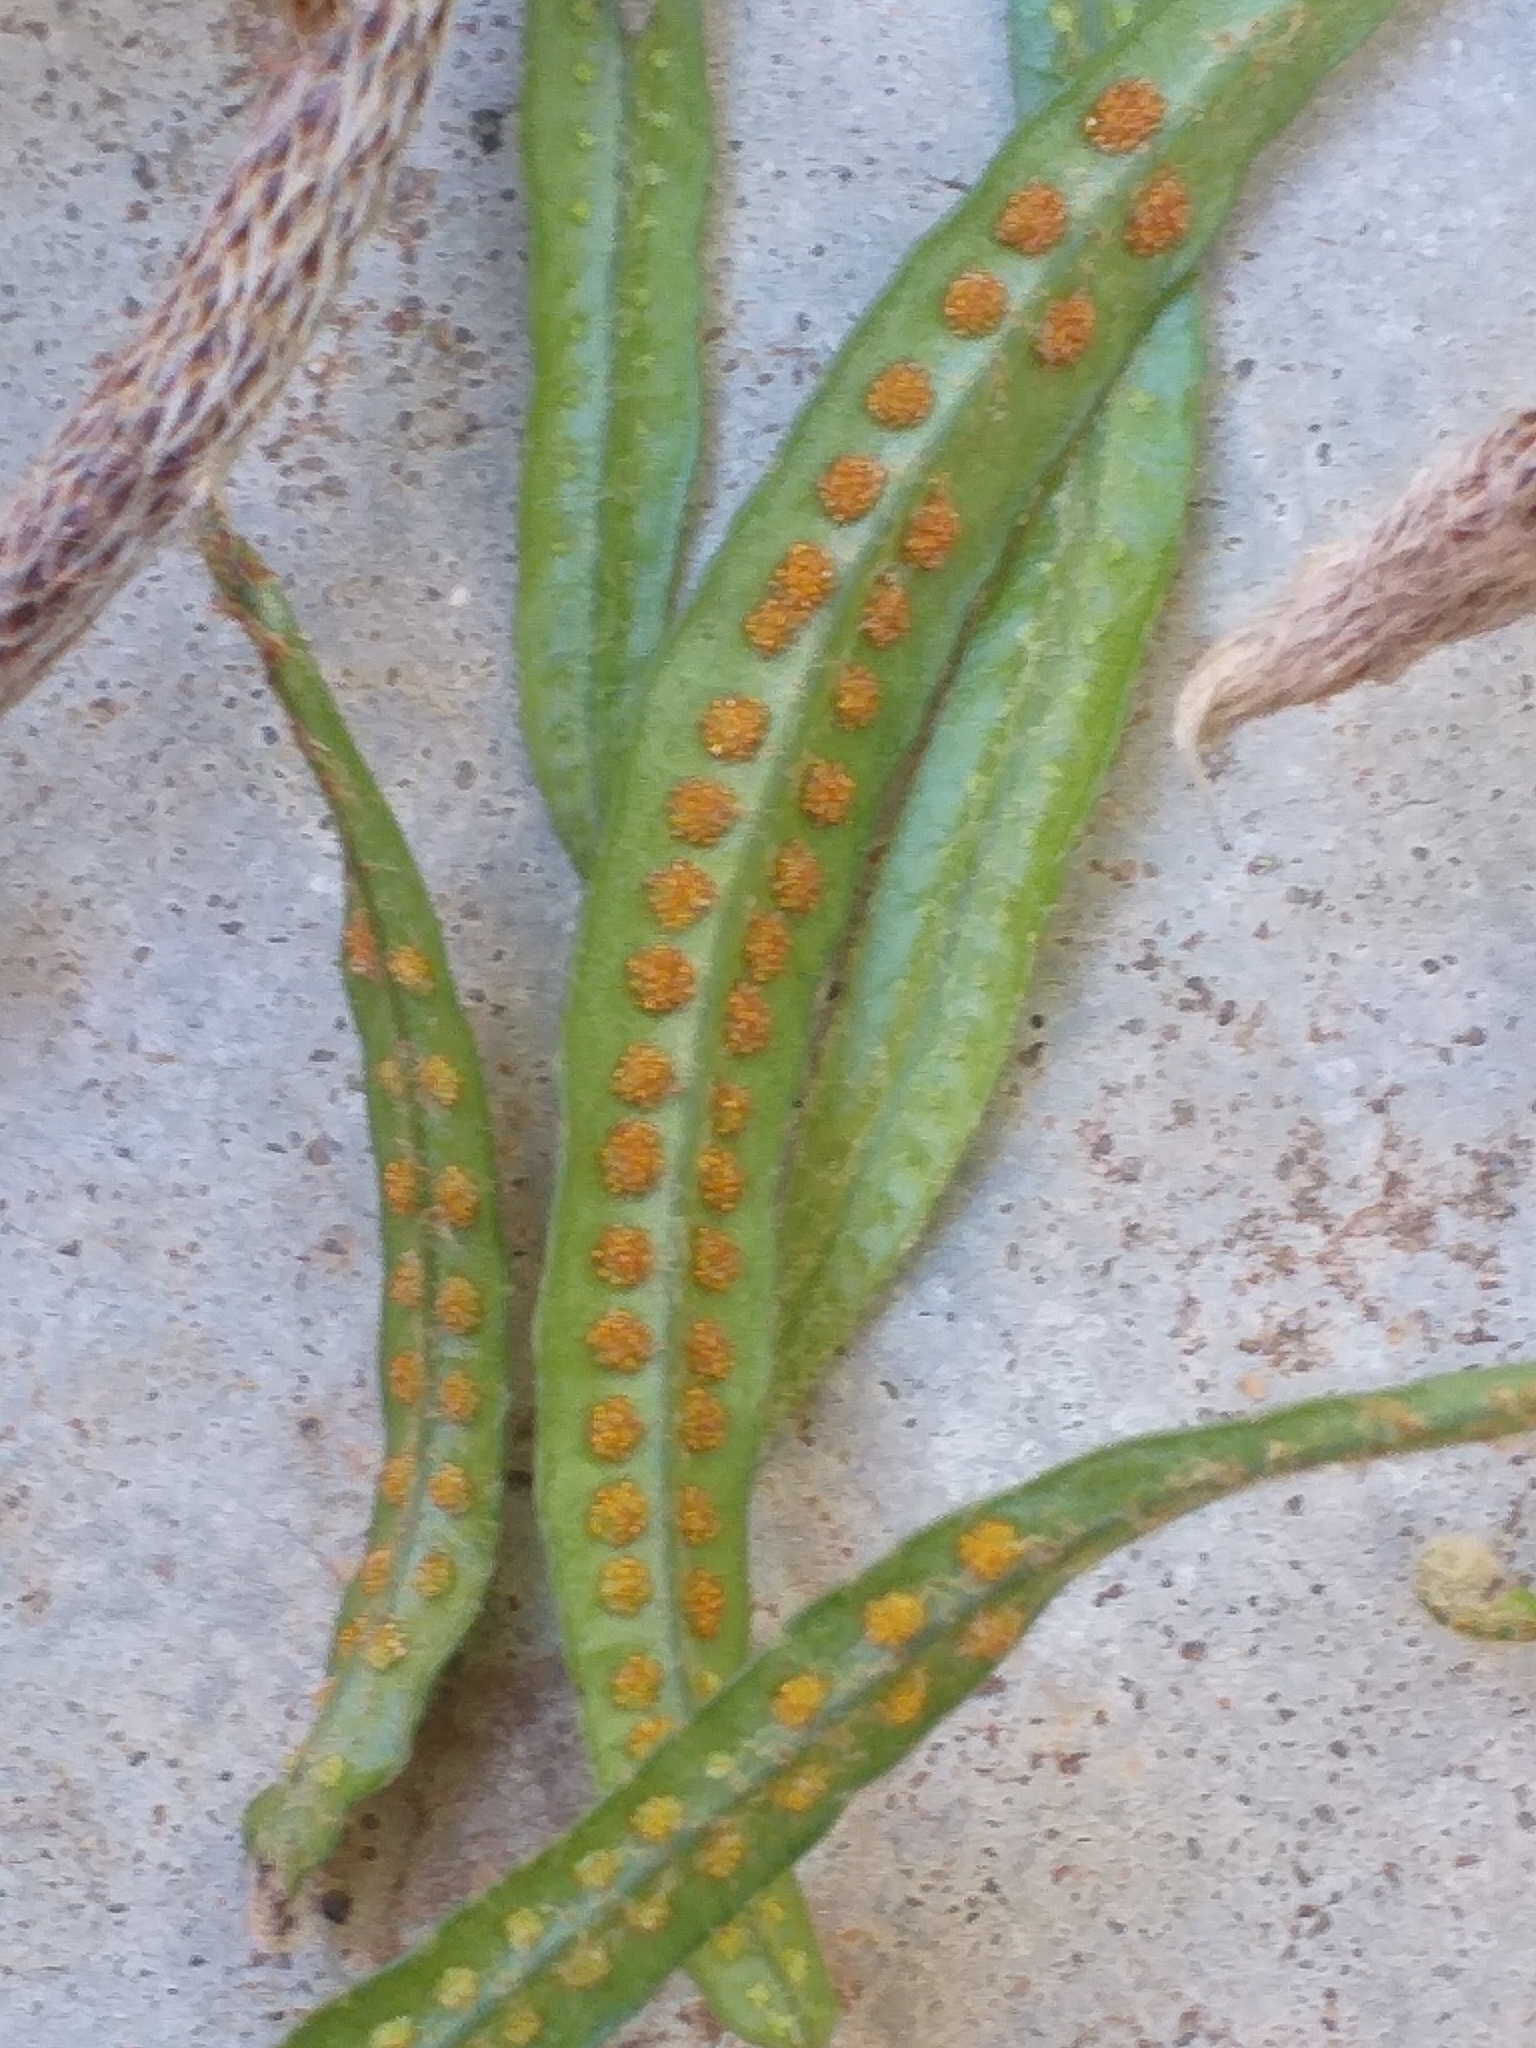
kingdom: Plantae
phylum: Tracheophyta
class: Polypodiopsida
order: Polypodiales
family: Polypodiaceae
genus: Microgramma
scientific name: Microgramma vaccinifolia
